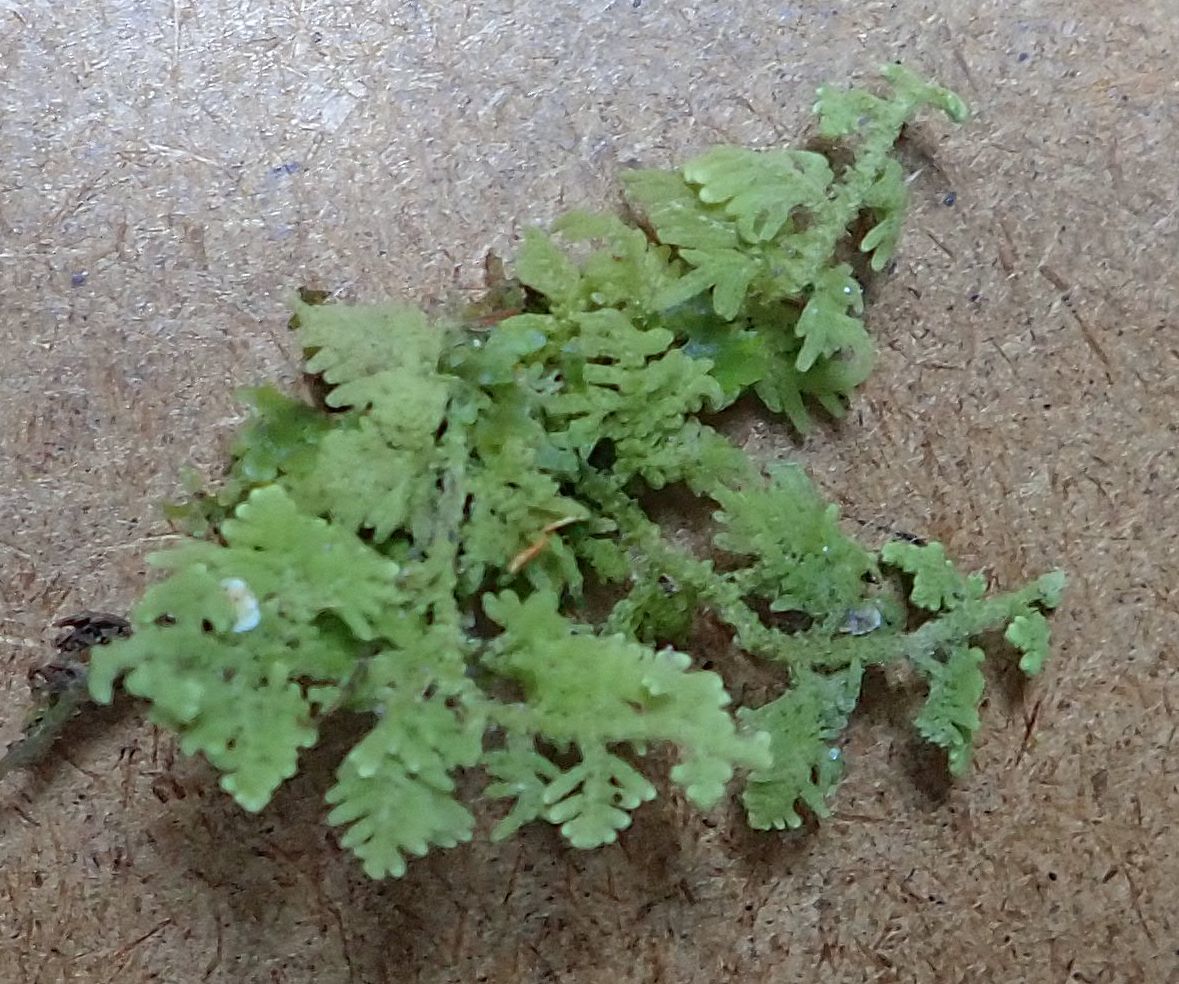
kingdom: Plantae
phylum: Marchantiophyta
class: Jungermanniopsida
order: Jungermanniales
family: Trichocoleaceae
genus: Trichocolea
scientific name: Trichocolea mollissima
